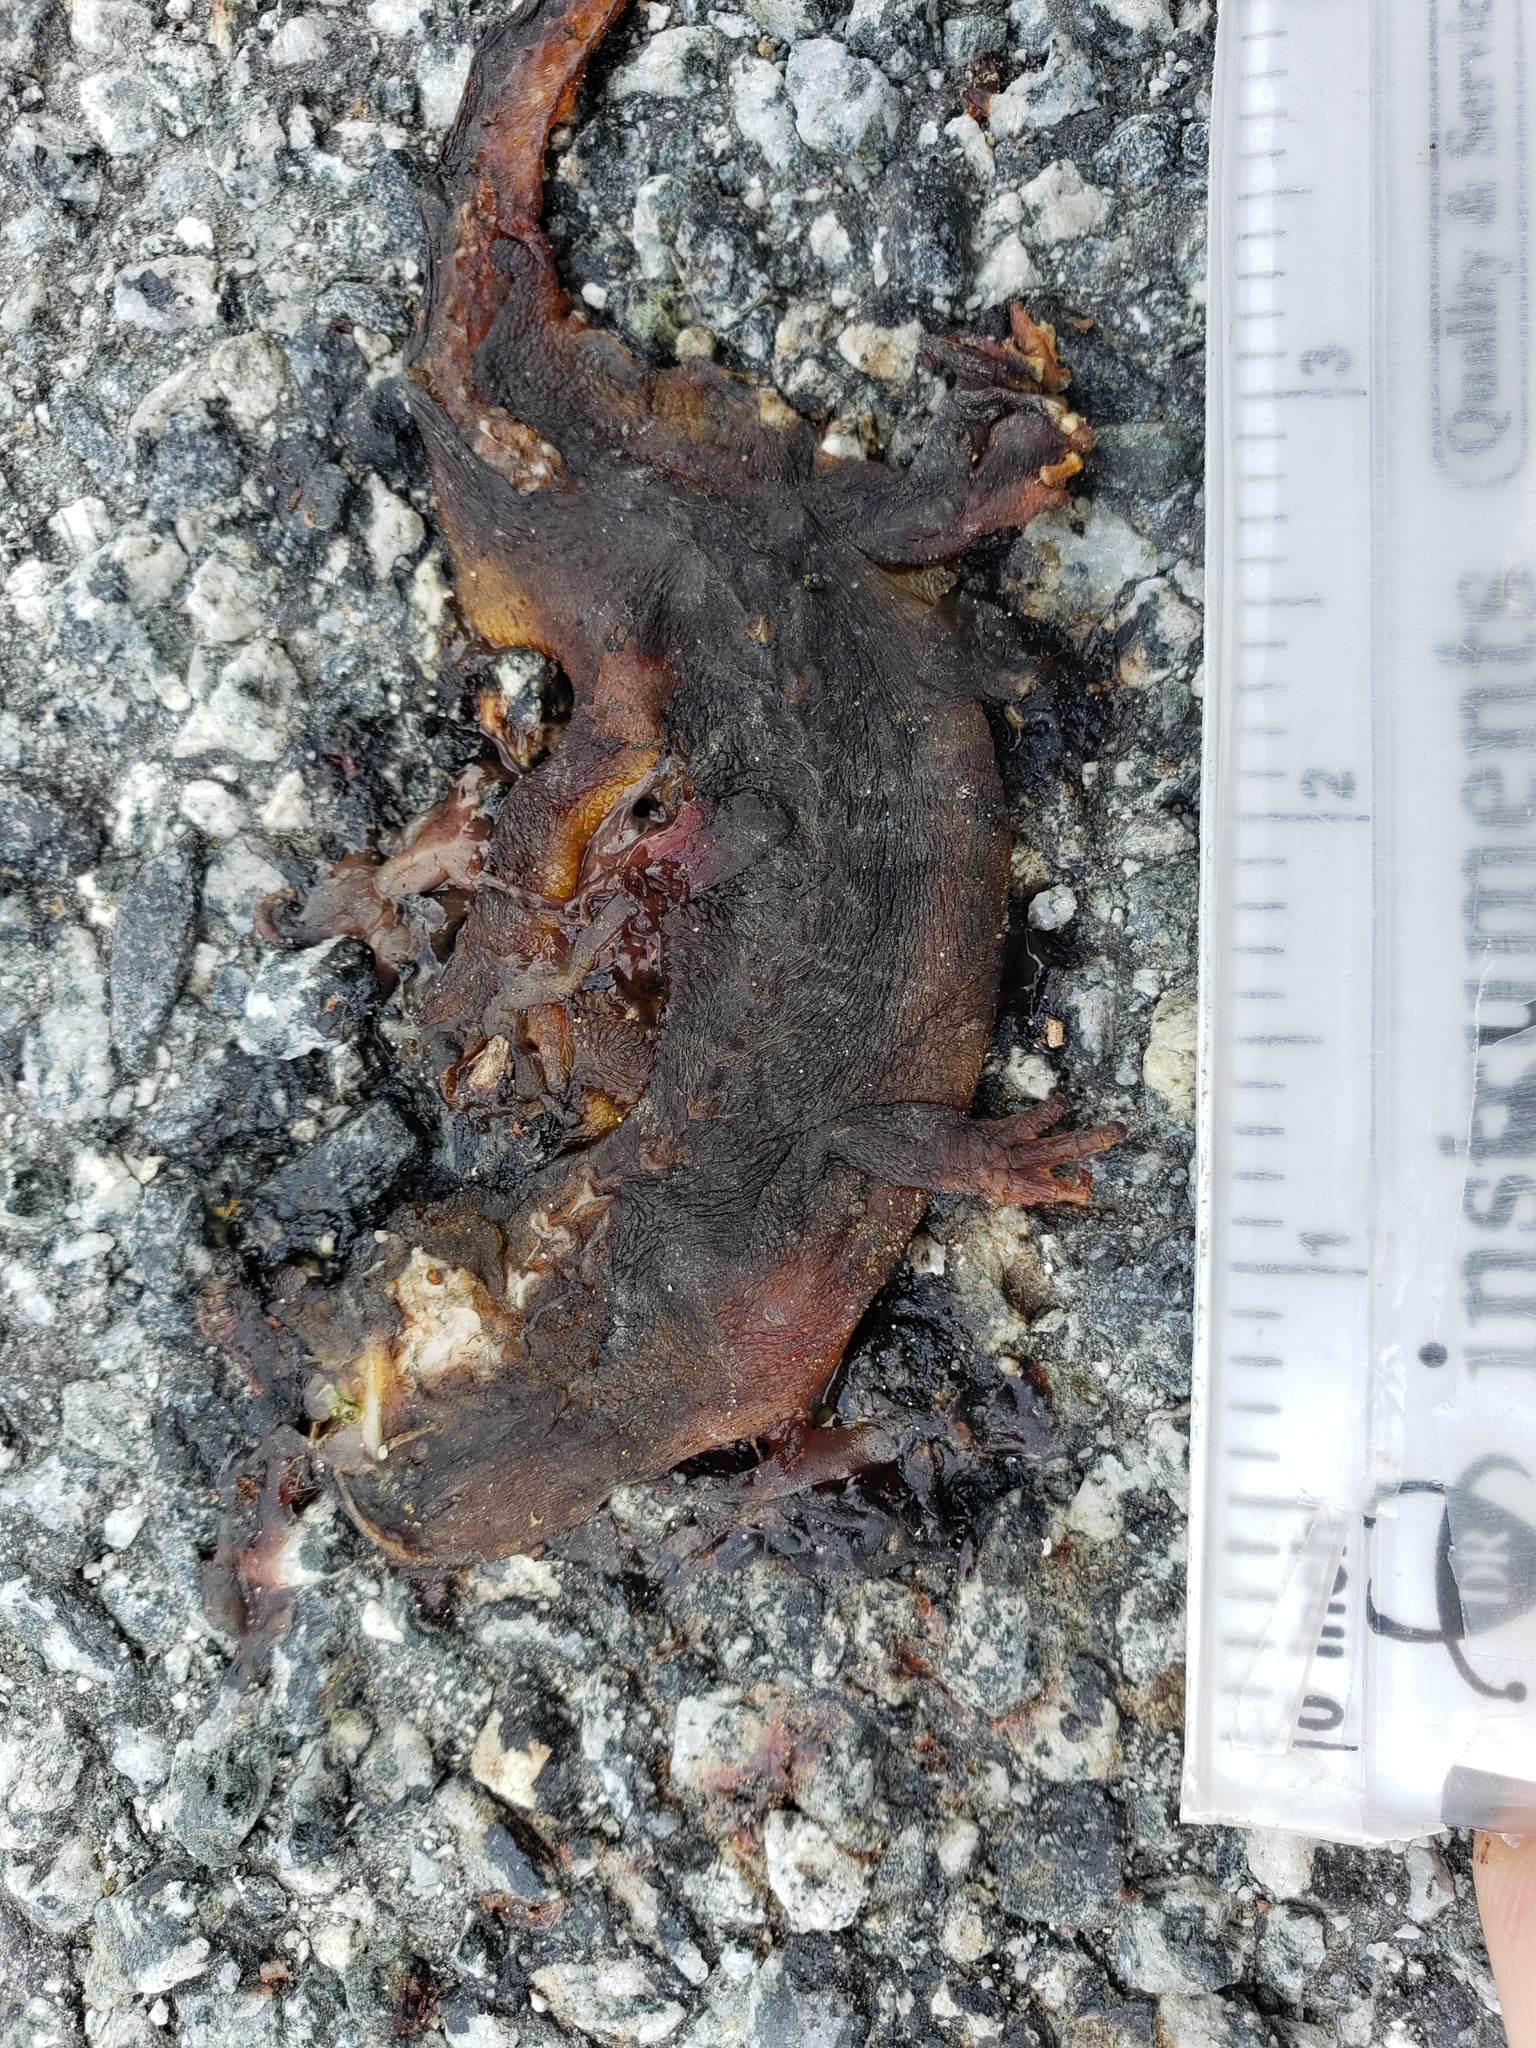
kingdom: Animalia
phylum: Chordata
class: Amphibia
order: Caudata
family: Salamandridae
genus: Taricha
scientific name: Taricha
